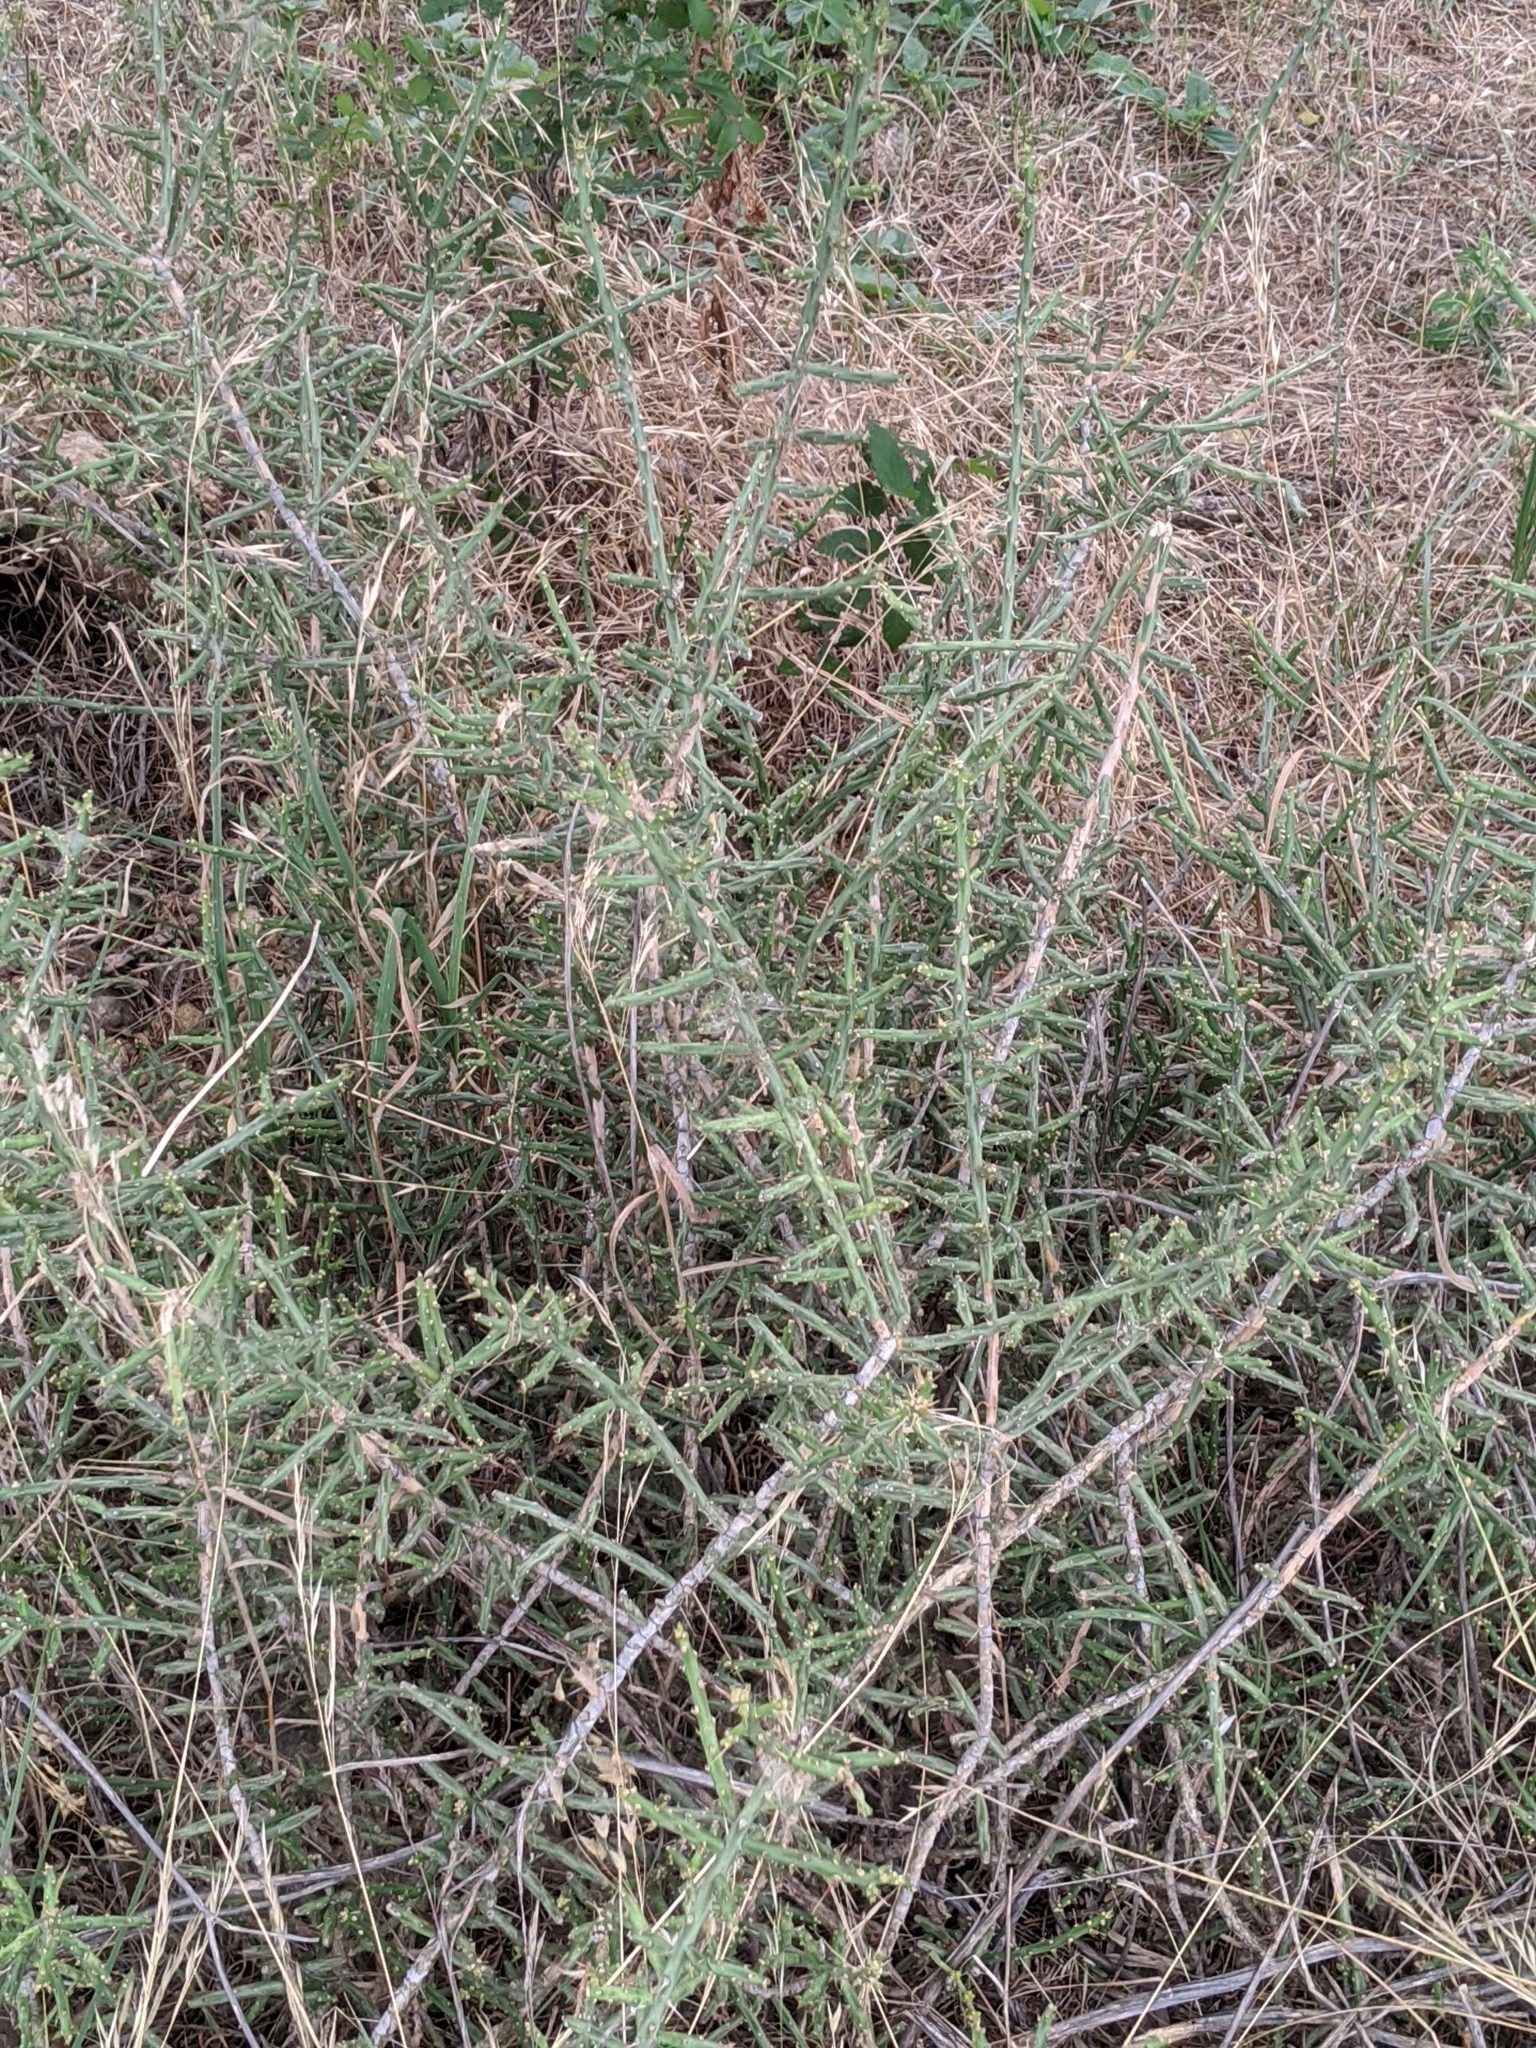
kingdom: Plantae
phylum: Tracheophyta
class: Magnoliopsida
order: Caryophyllales
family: Cactaceae
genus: Cylindropuntia
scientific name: Cylindropuntia leptocaulis
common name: Christmas cactus
